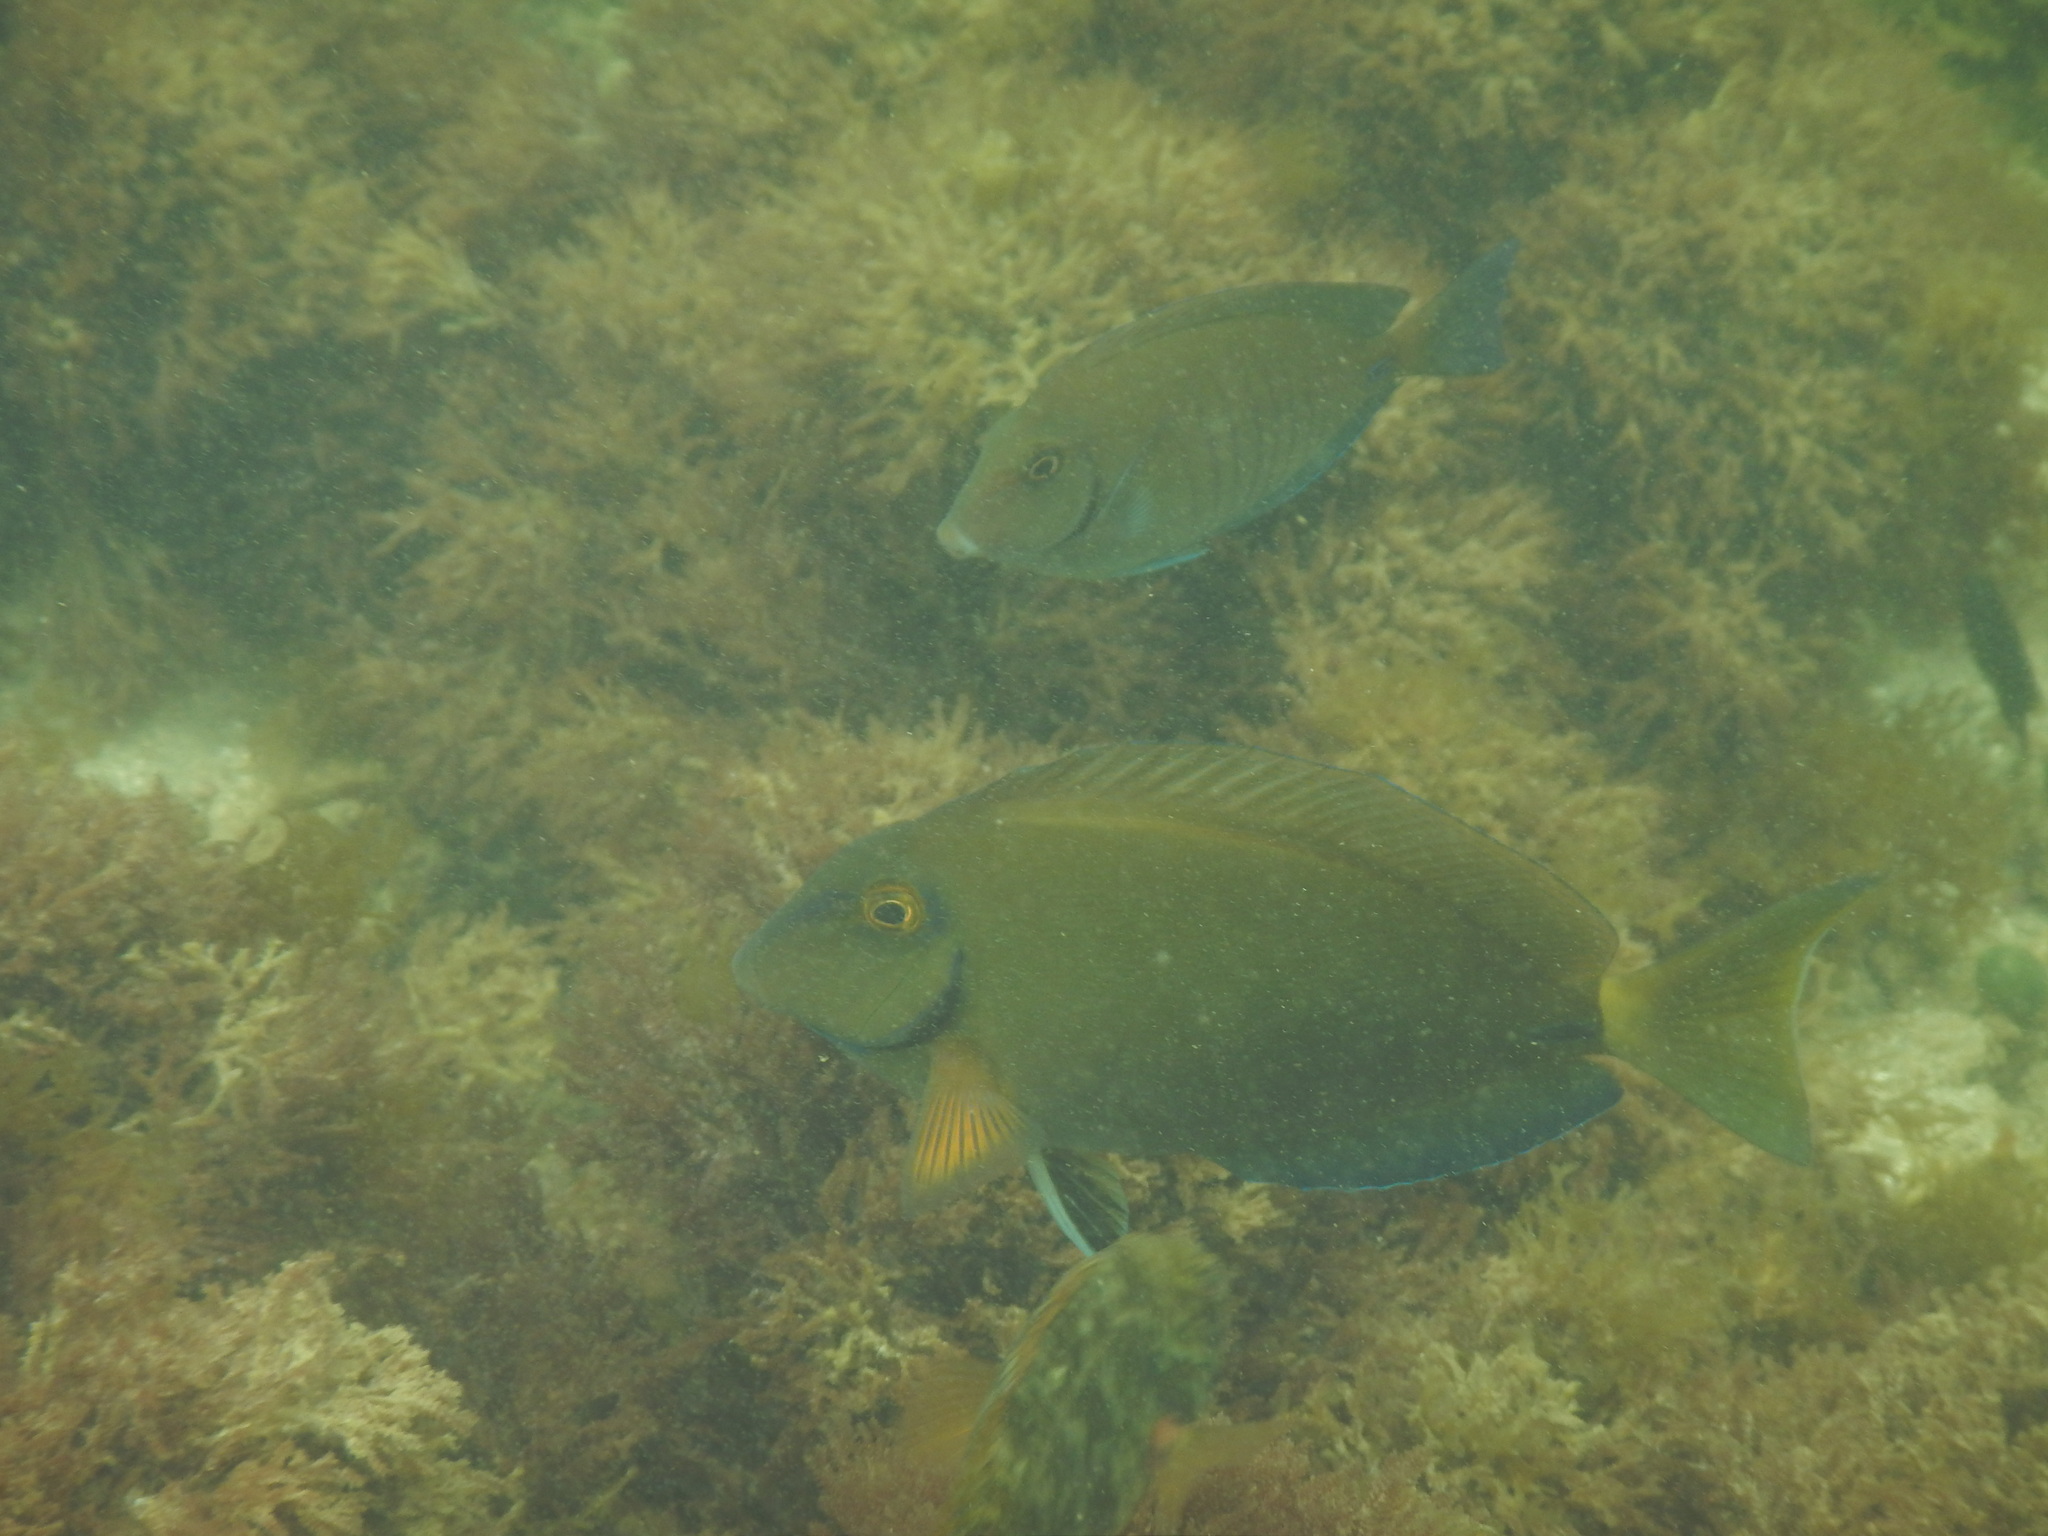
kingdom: Animalia
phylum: Chordata
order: Perciformes
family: Acanthuridae
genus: Acanthurus
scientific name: Acanthurus bahianus
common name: Ocean surgeon
